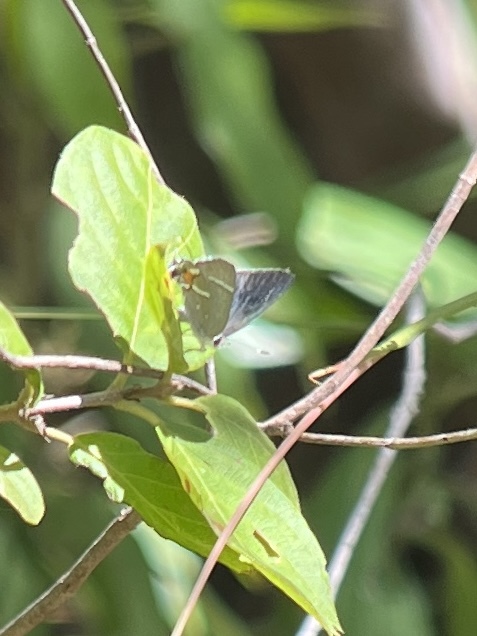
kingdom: Animalia
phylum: Arthropoda
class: Insecta
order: Lepidoptera
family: Lycaenidae
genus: Strymon
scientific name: Strymon acis
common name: Antillean hairstreak
